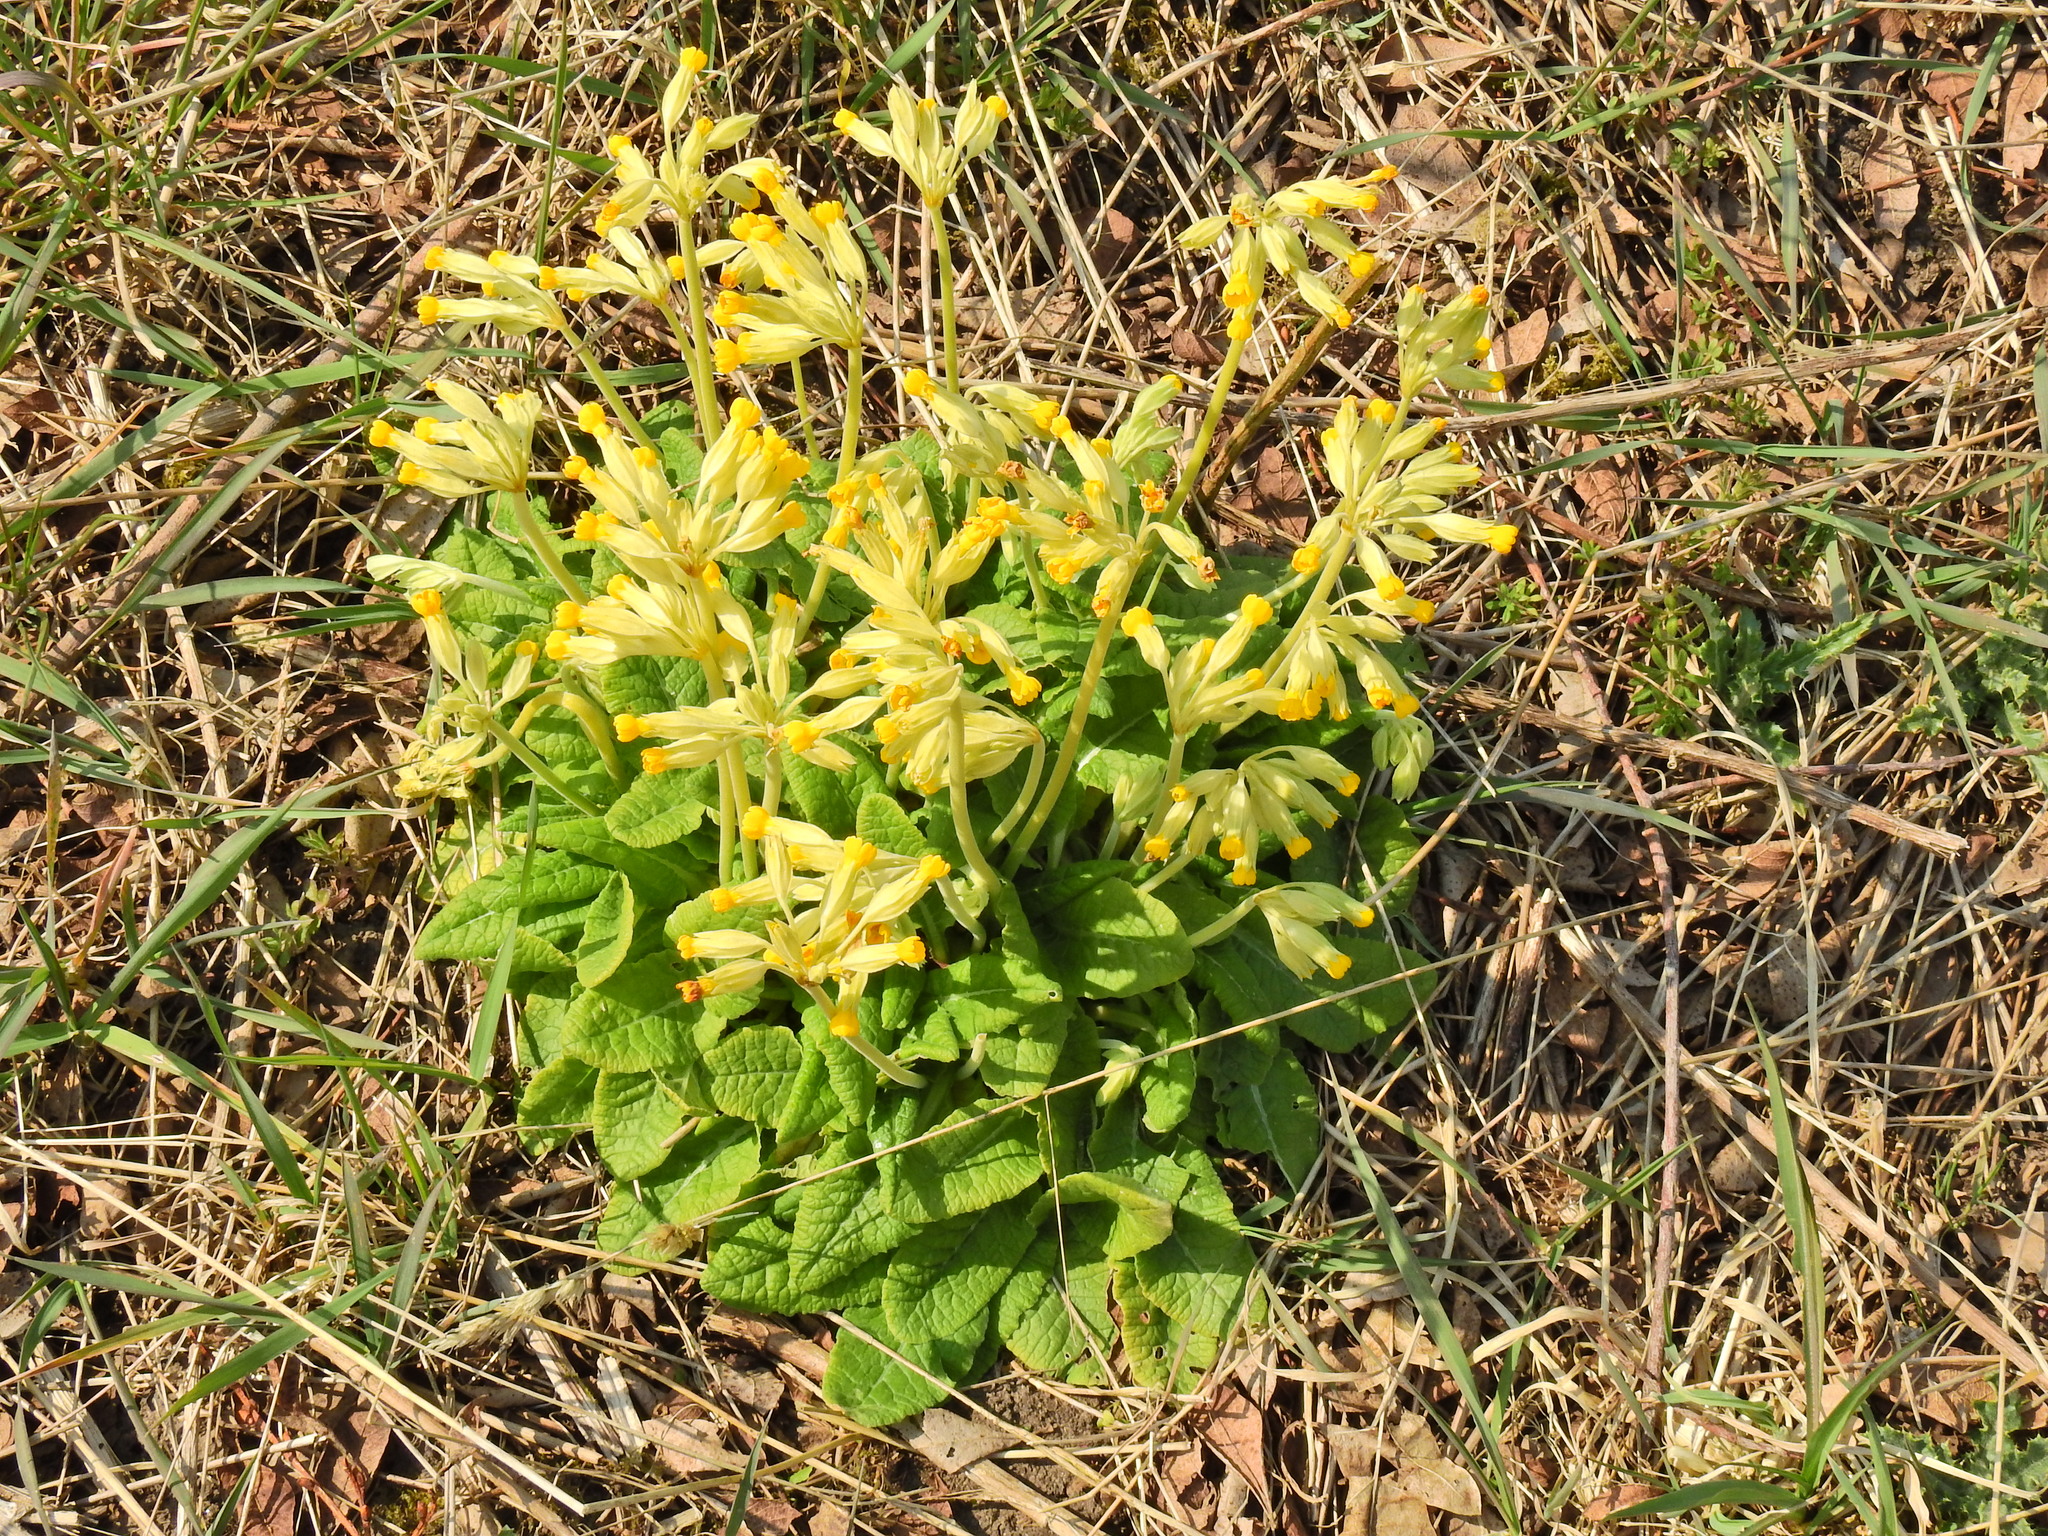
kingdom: Plantae
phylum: Tracheophyta
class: Magnoliopsida
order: Ericales
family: Primulaceae
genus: Primula
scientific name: Primula veris
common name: Cowslip
